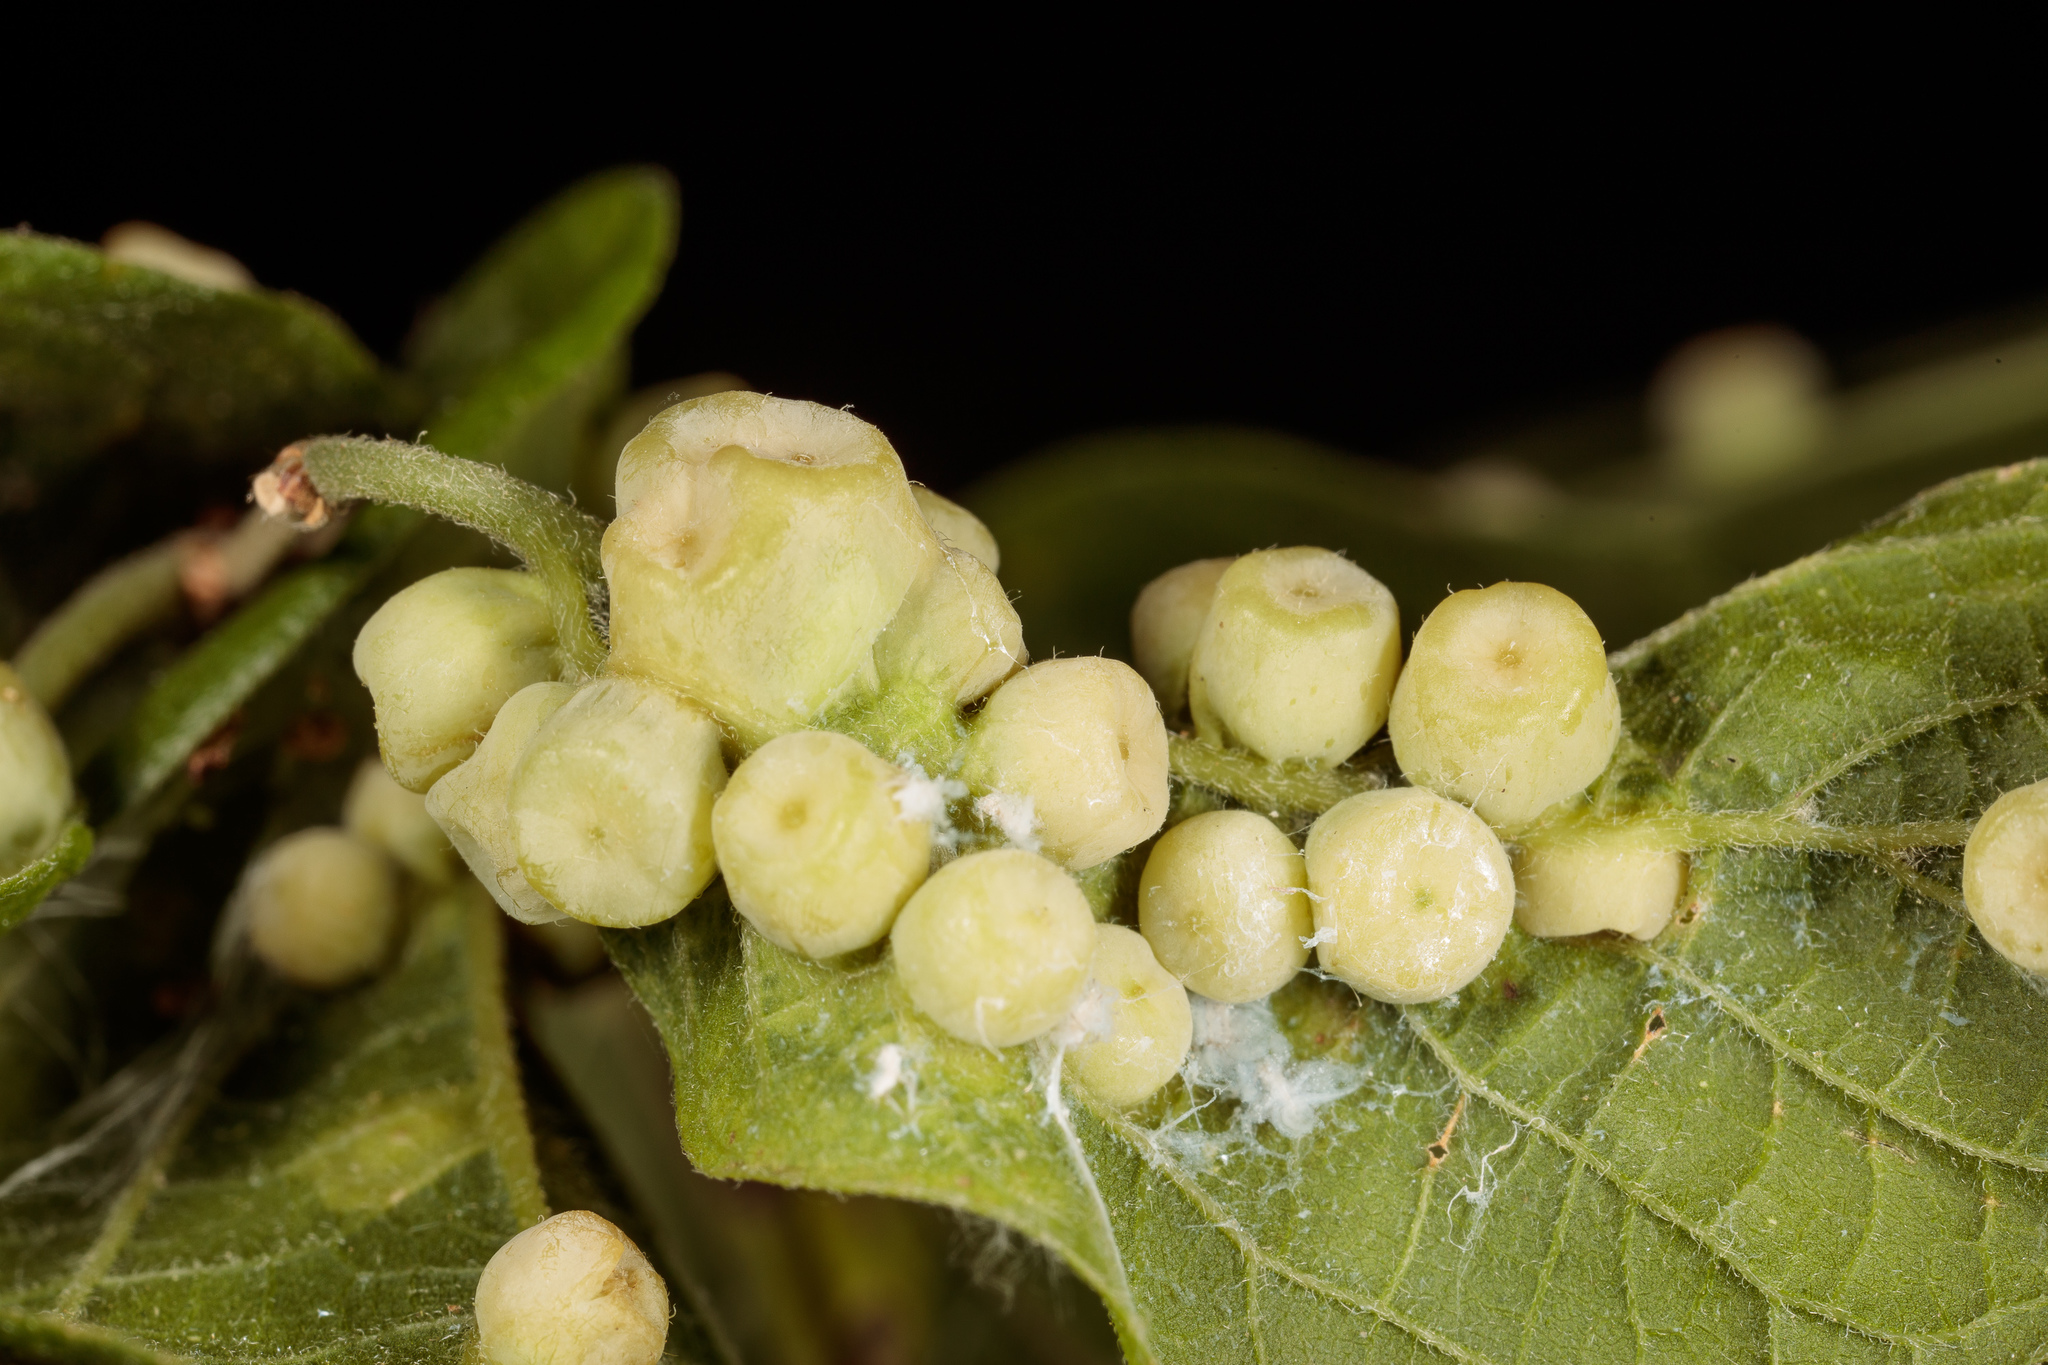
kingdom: Animalia
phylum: Arthropoda
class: Insecta
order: Hemiptera
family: Aphalaridae
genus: Pachypsylla
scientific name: Pachypsylla celtidismamma
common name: Hackberry nipplegall psyllid
